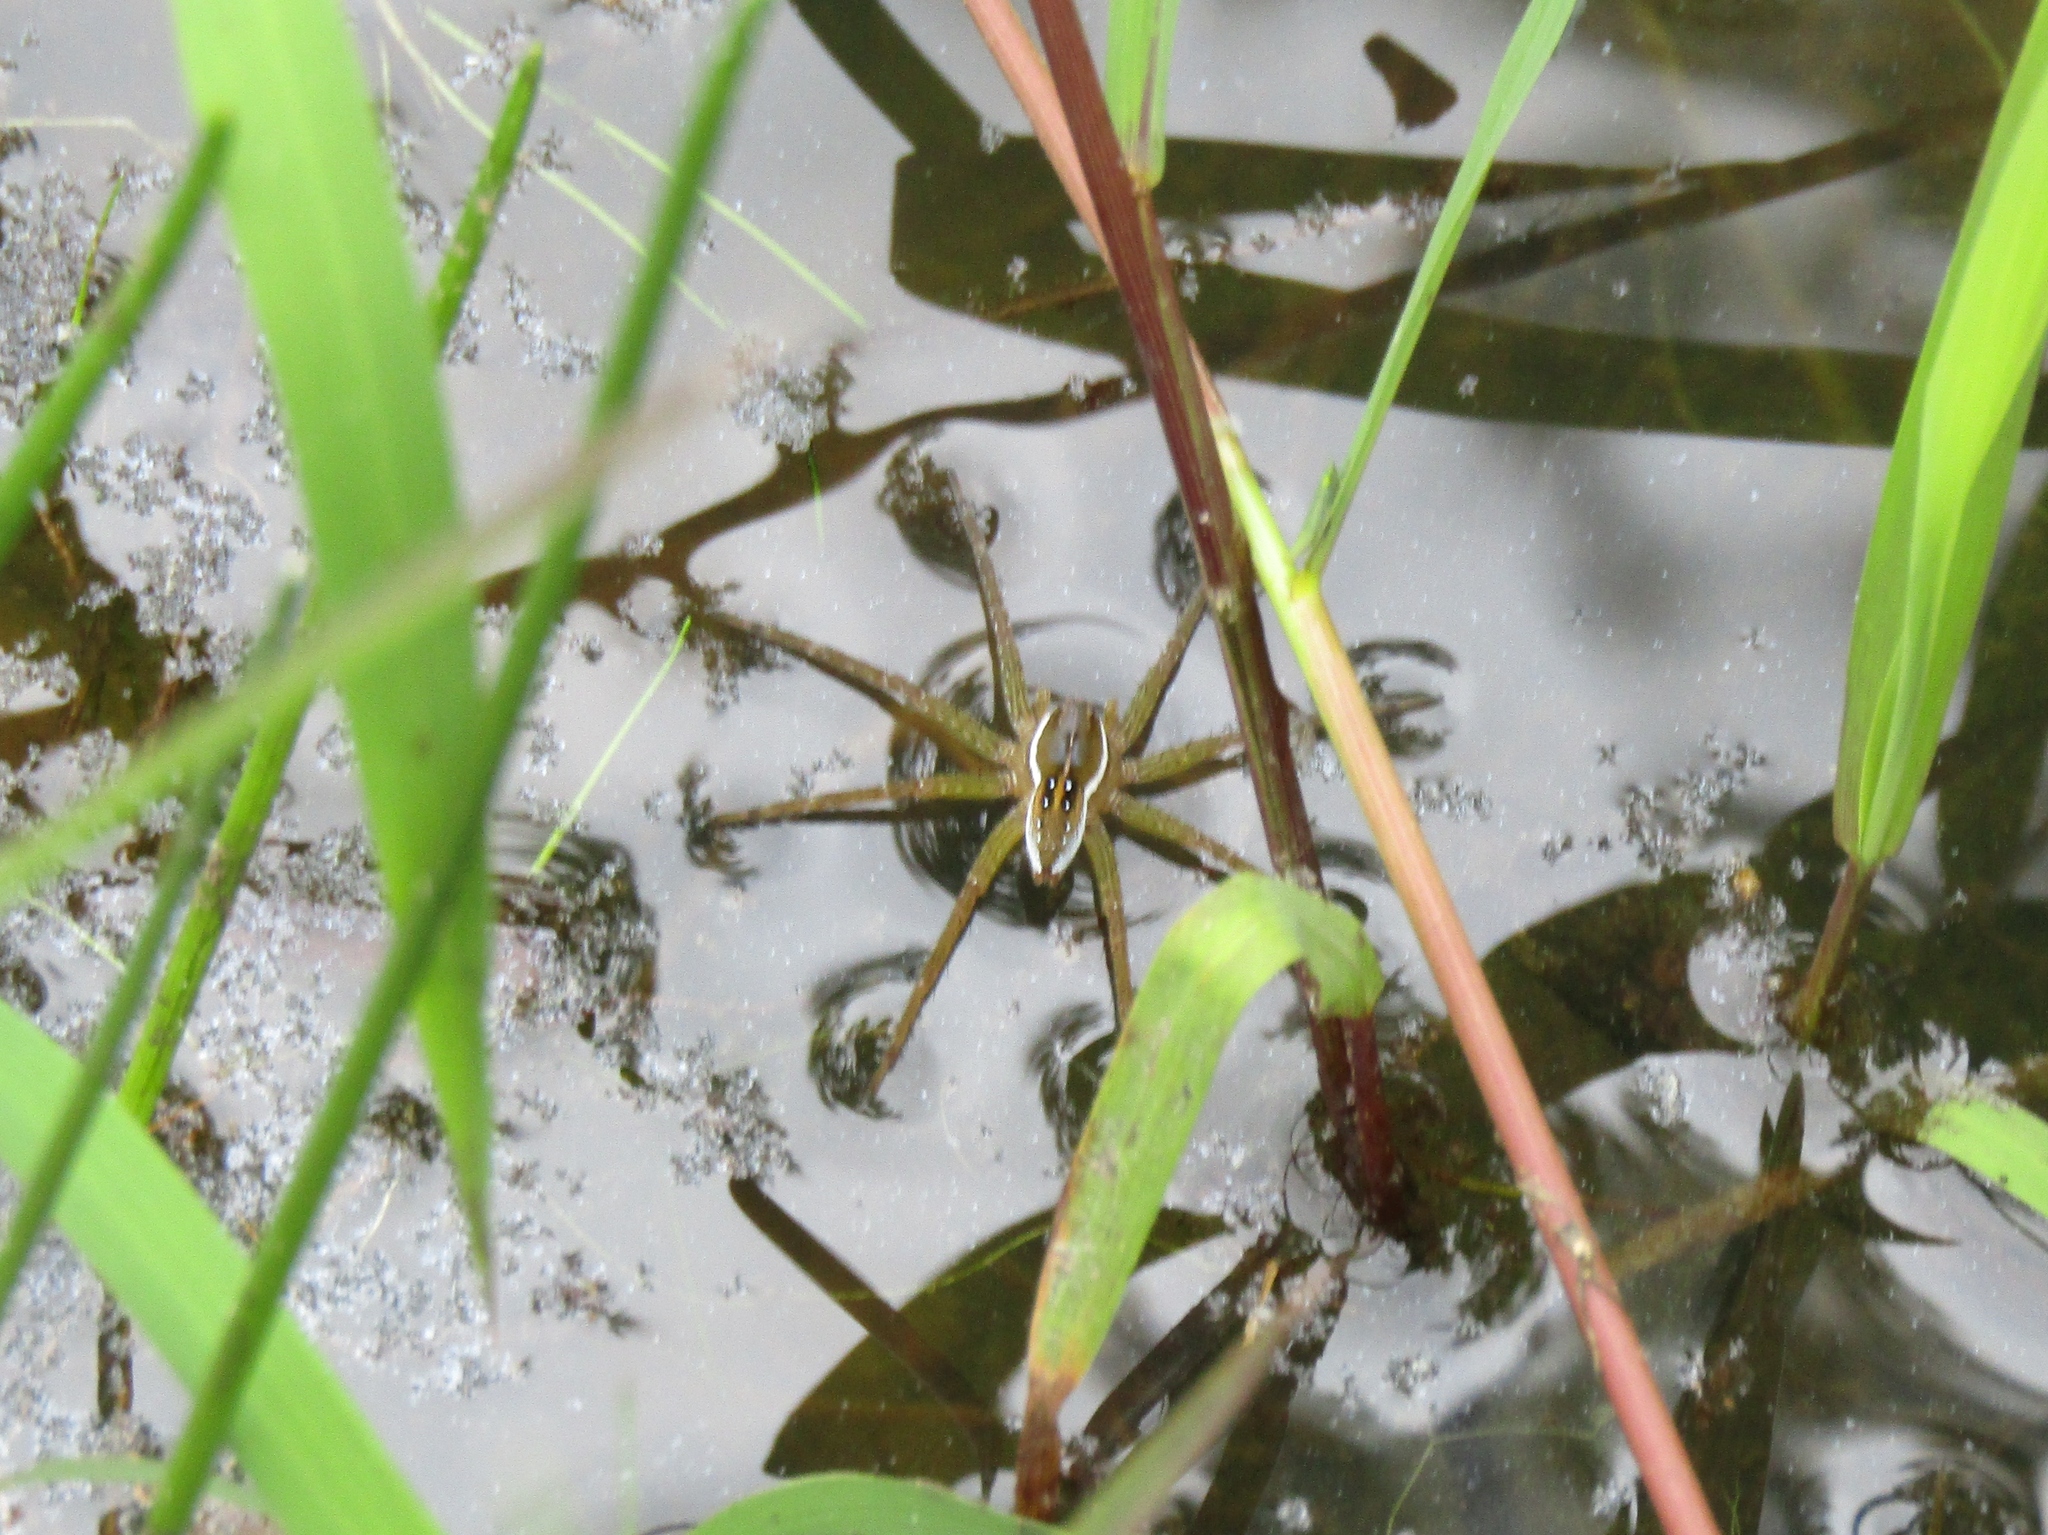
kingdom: Animalia
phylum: Arthropoda
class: Arachnida
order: Araneae
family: Pisauridae
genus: Dolomedes
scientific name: Dolomedes triton
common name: Six-spotted fishing spider
